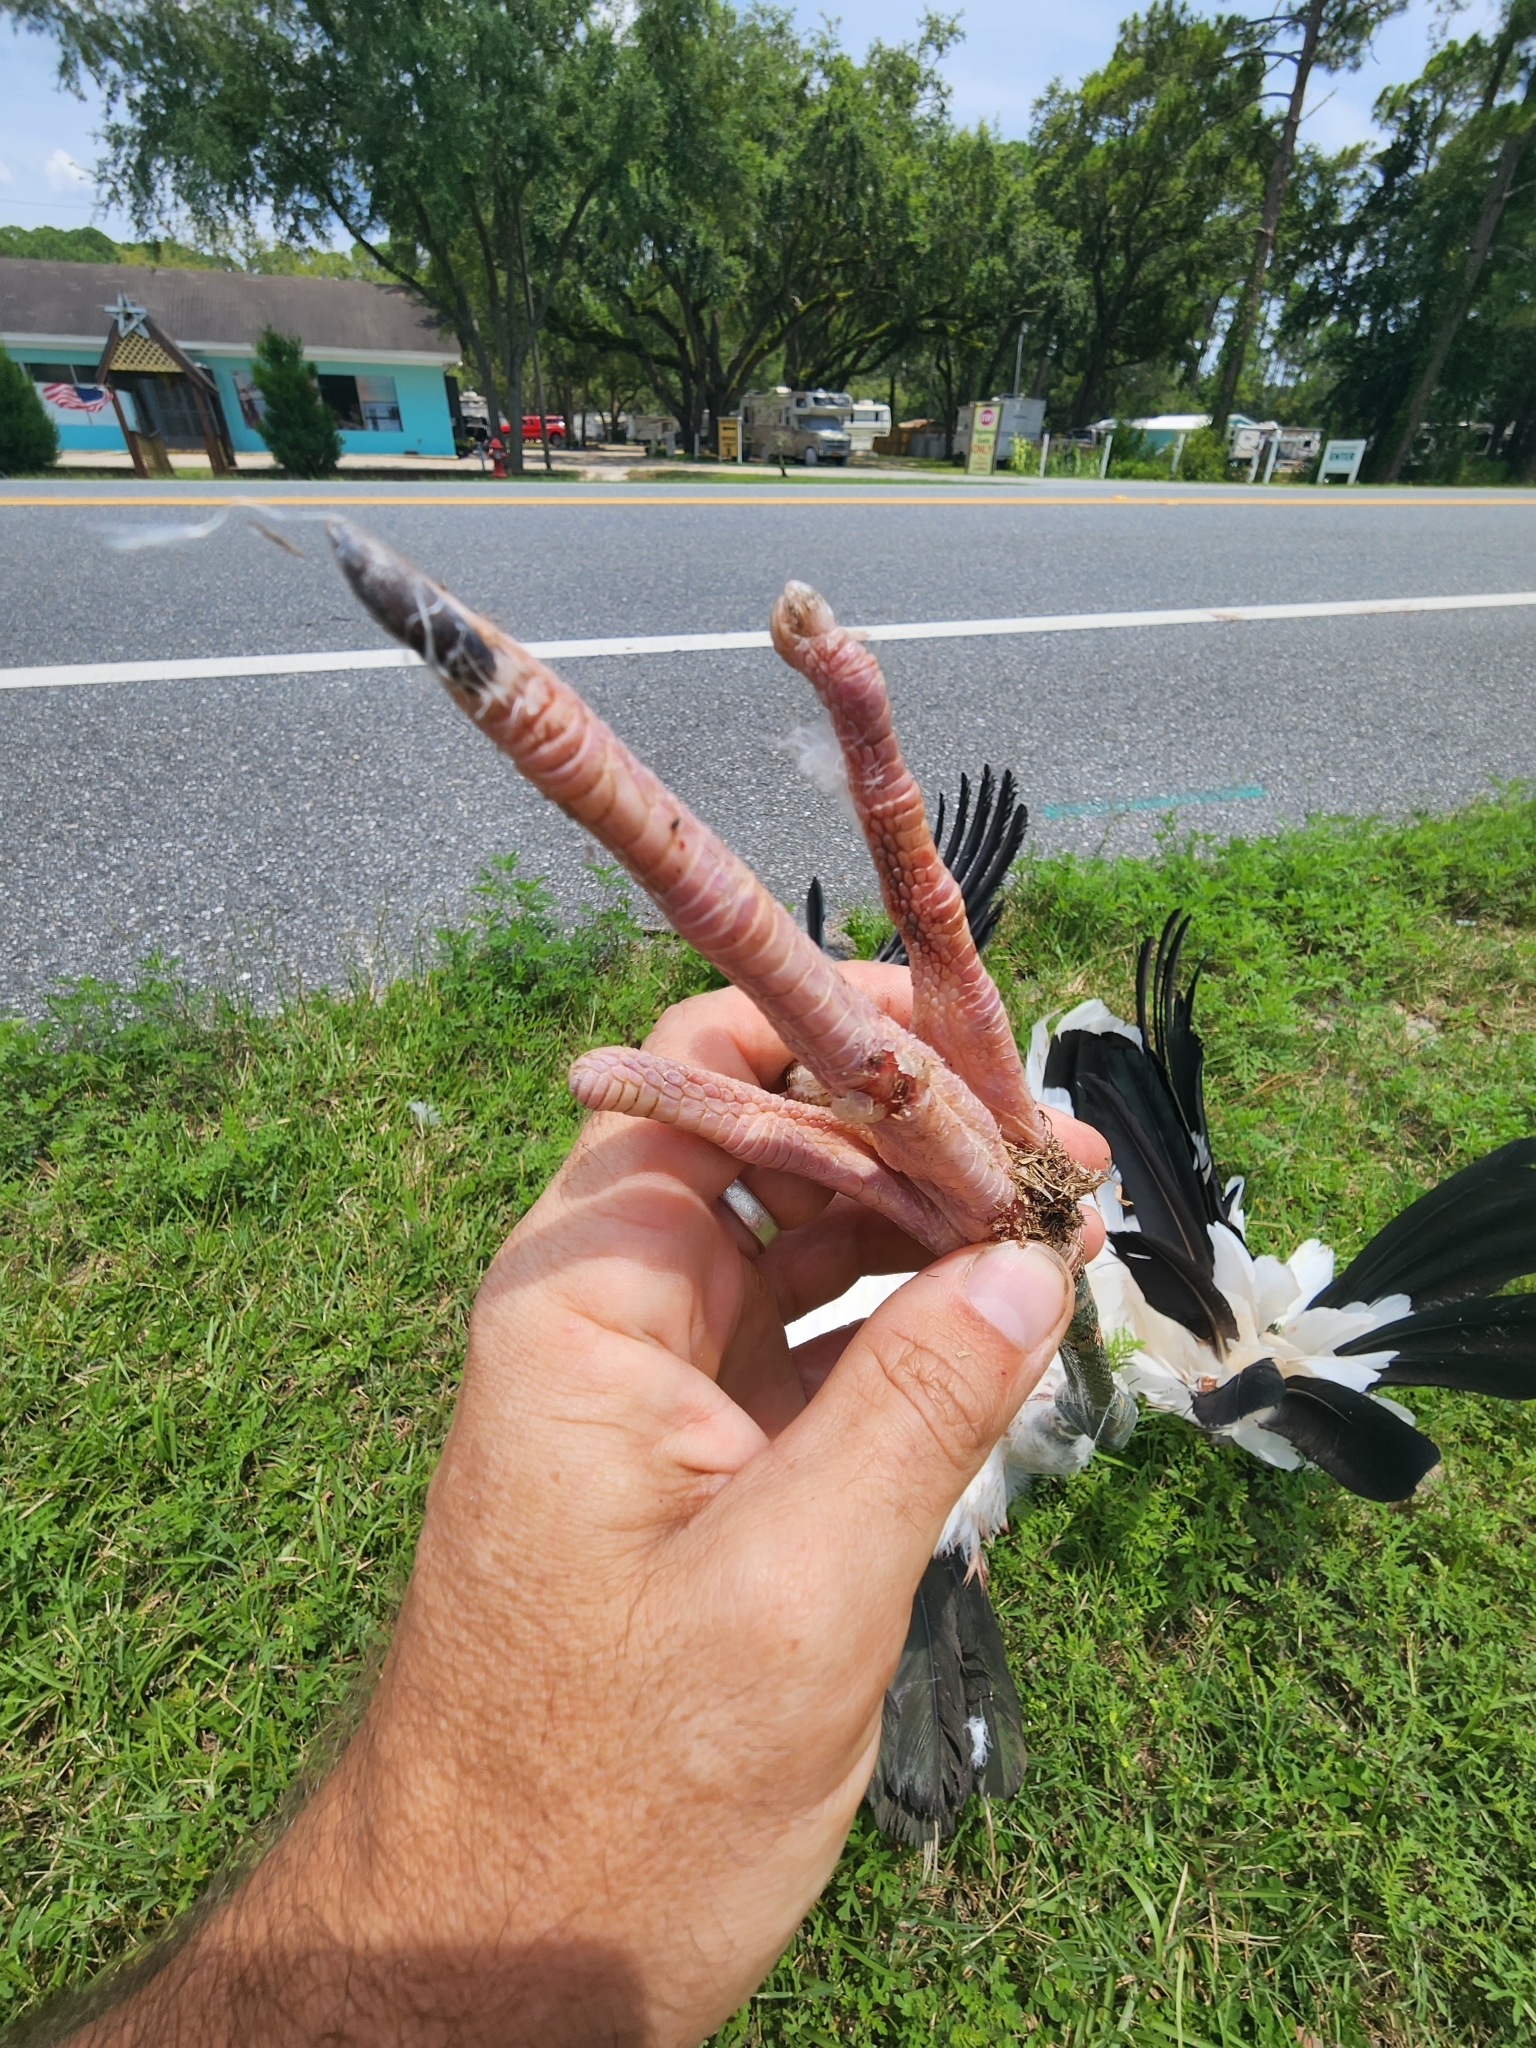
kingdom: Animalia
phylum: Chordata
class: Aves
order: Ciconiiformes
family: Ciconiidae
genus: Mycteria
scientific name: Mycteria americana
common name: Wood stork
